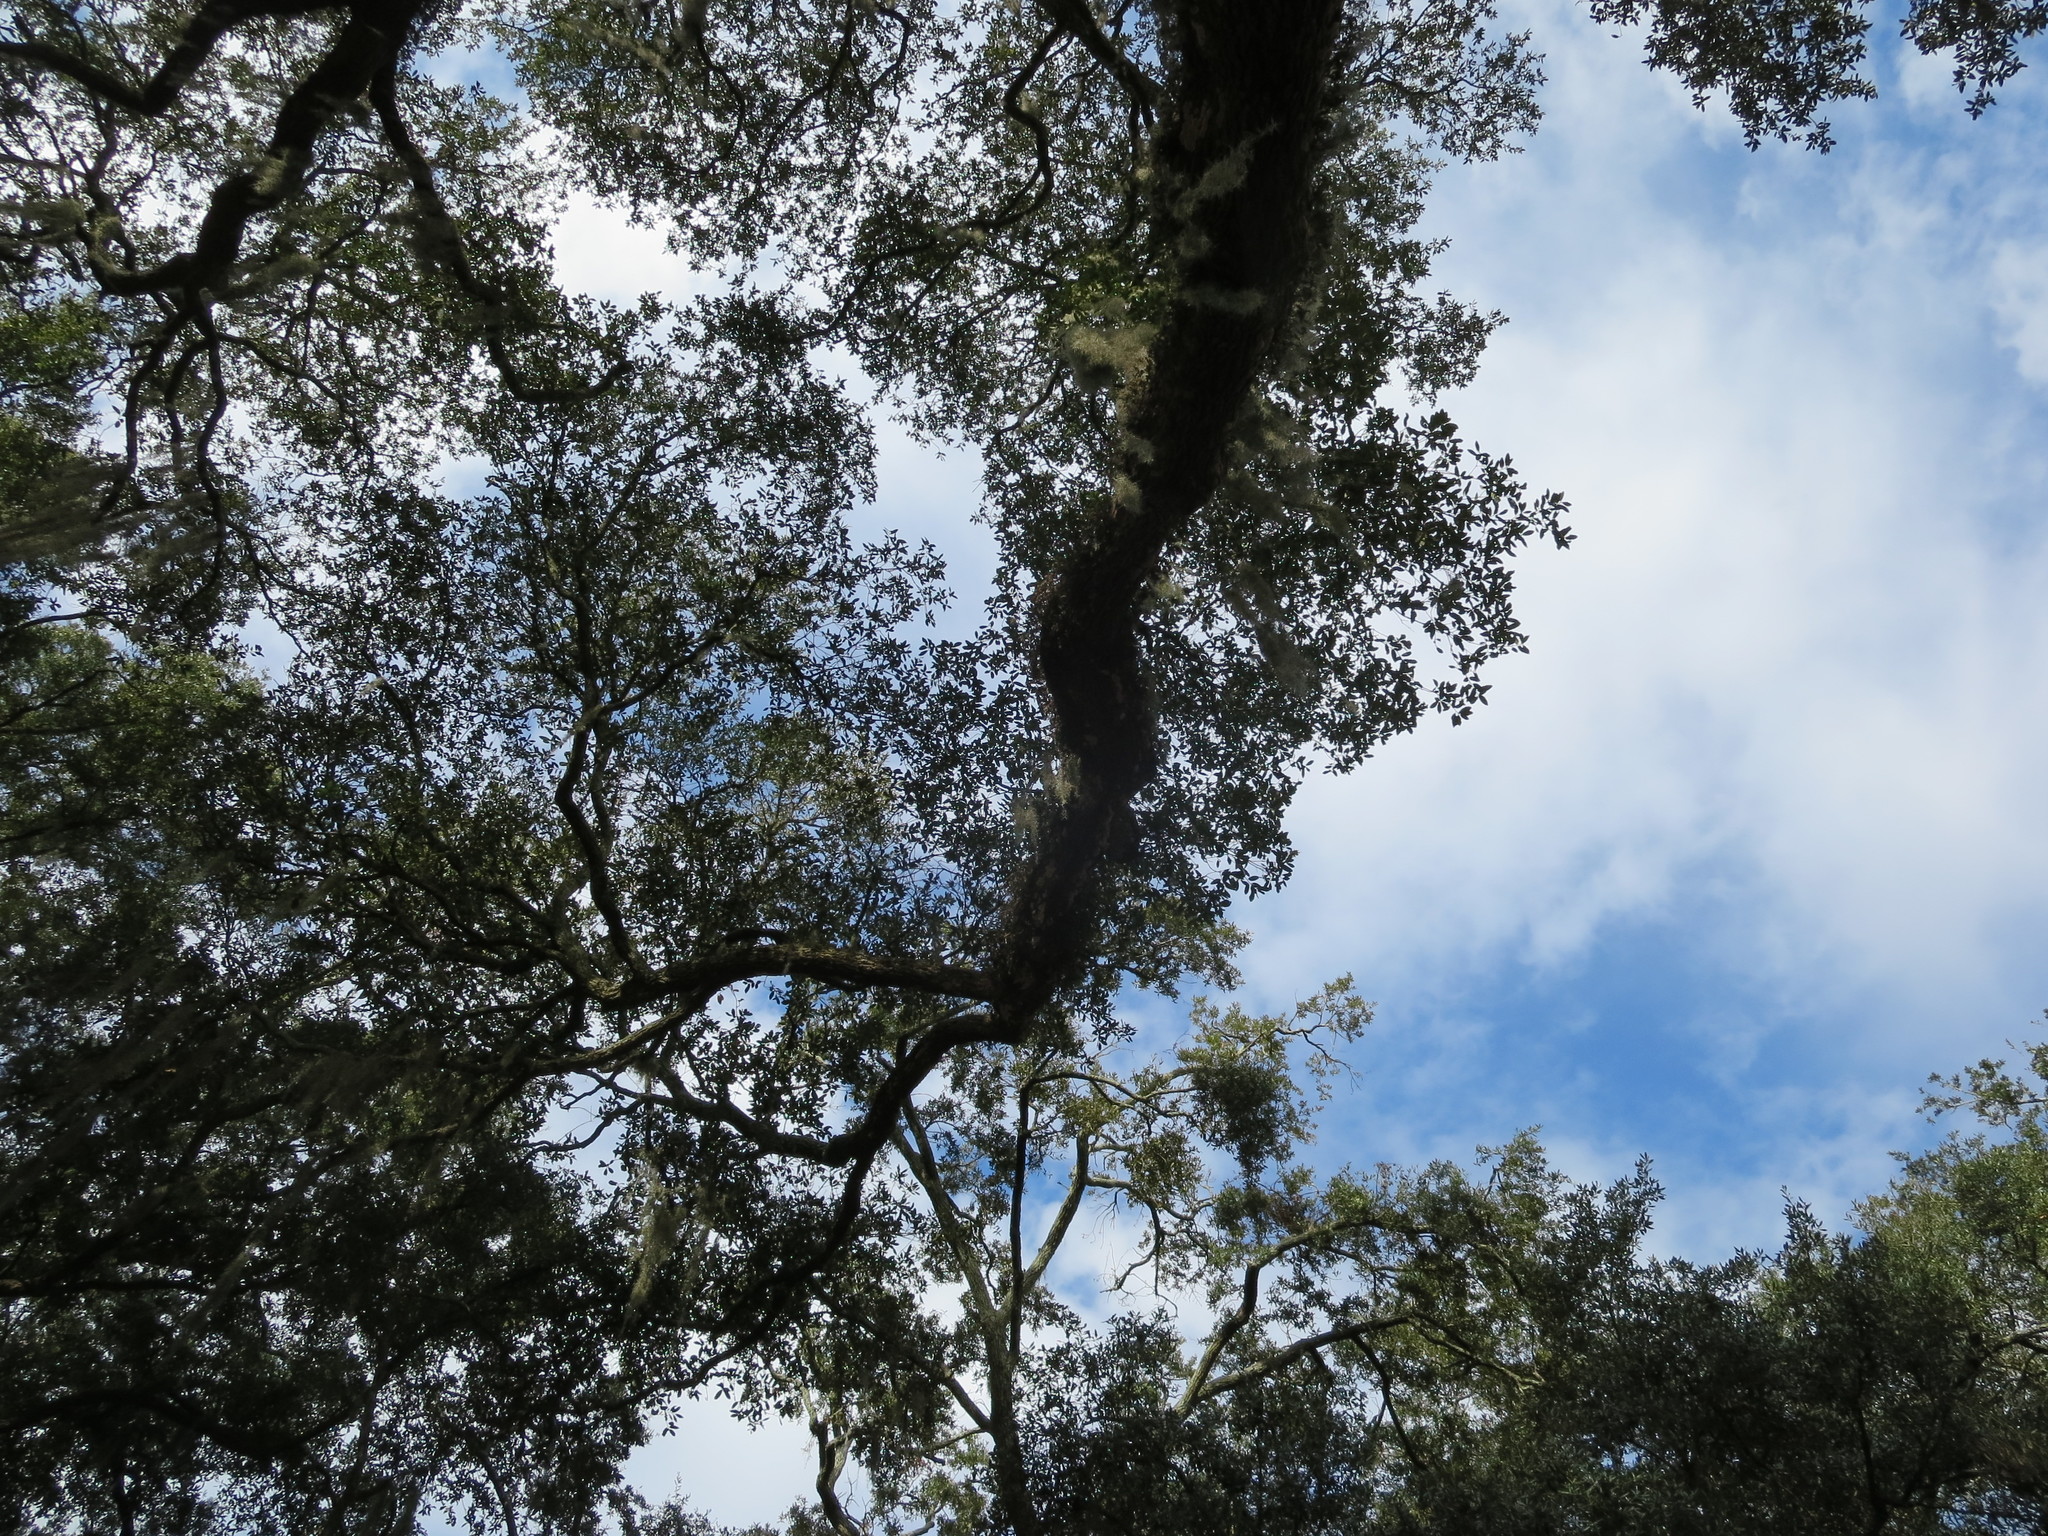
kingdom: Plantae
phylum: Tracheophyta
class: Polypodiopsida
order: Polypodiales
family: Polypodiaceae
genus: Pleopeltis
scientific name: Pleopeltis michauxiana
